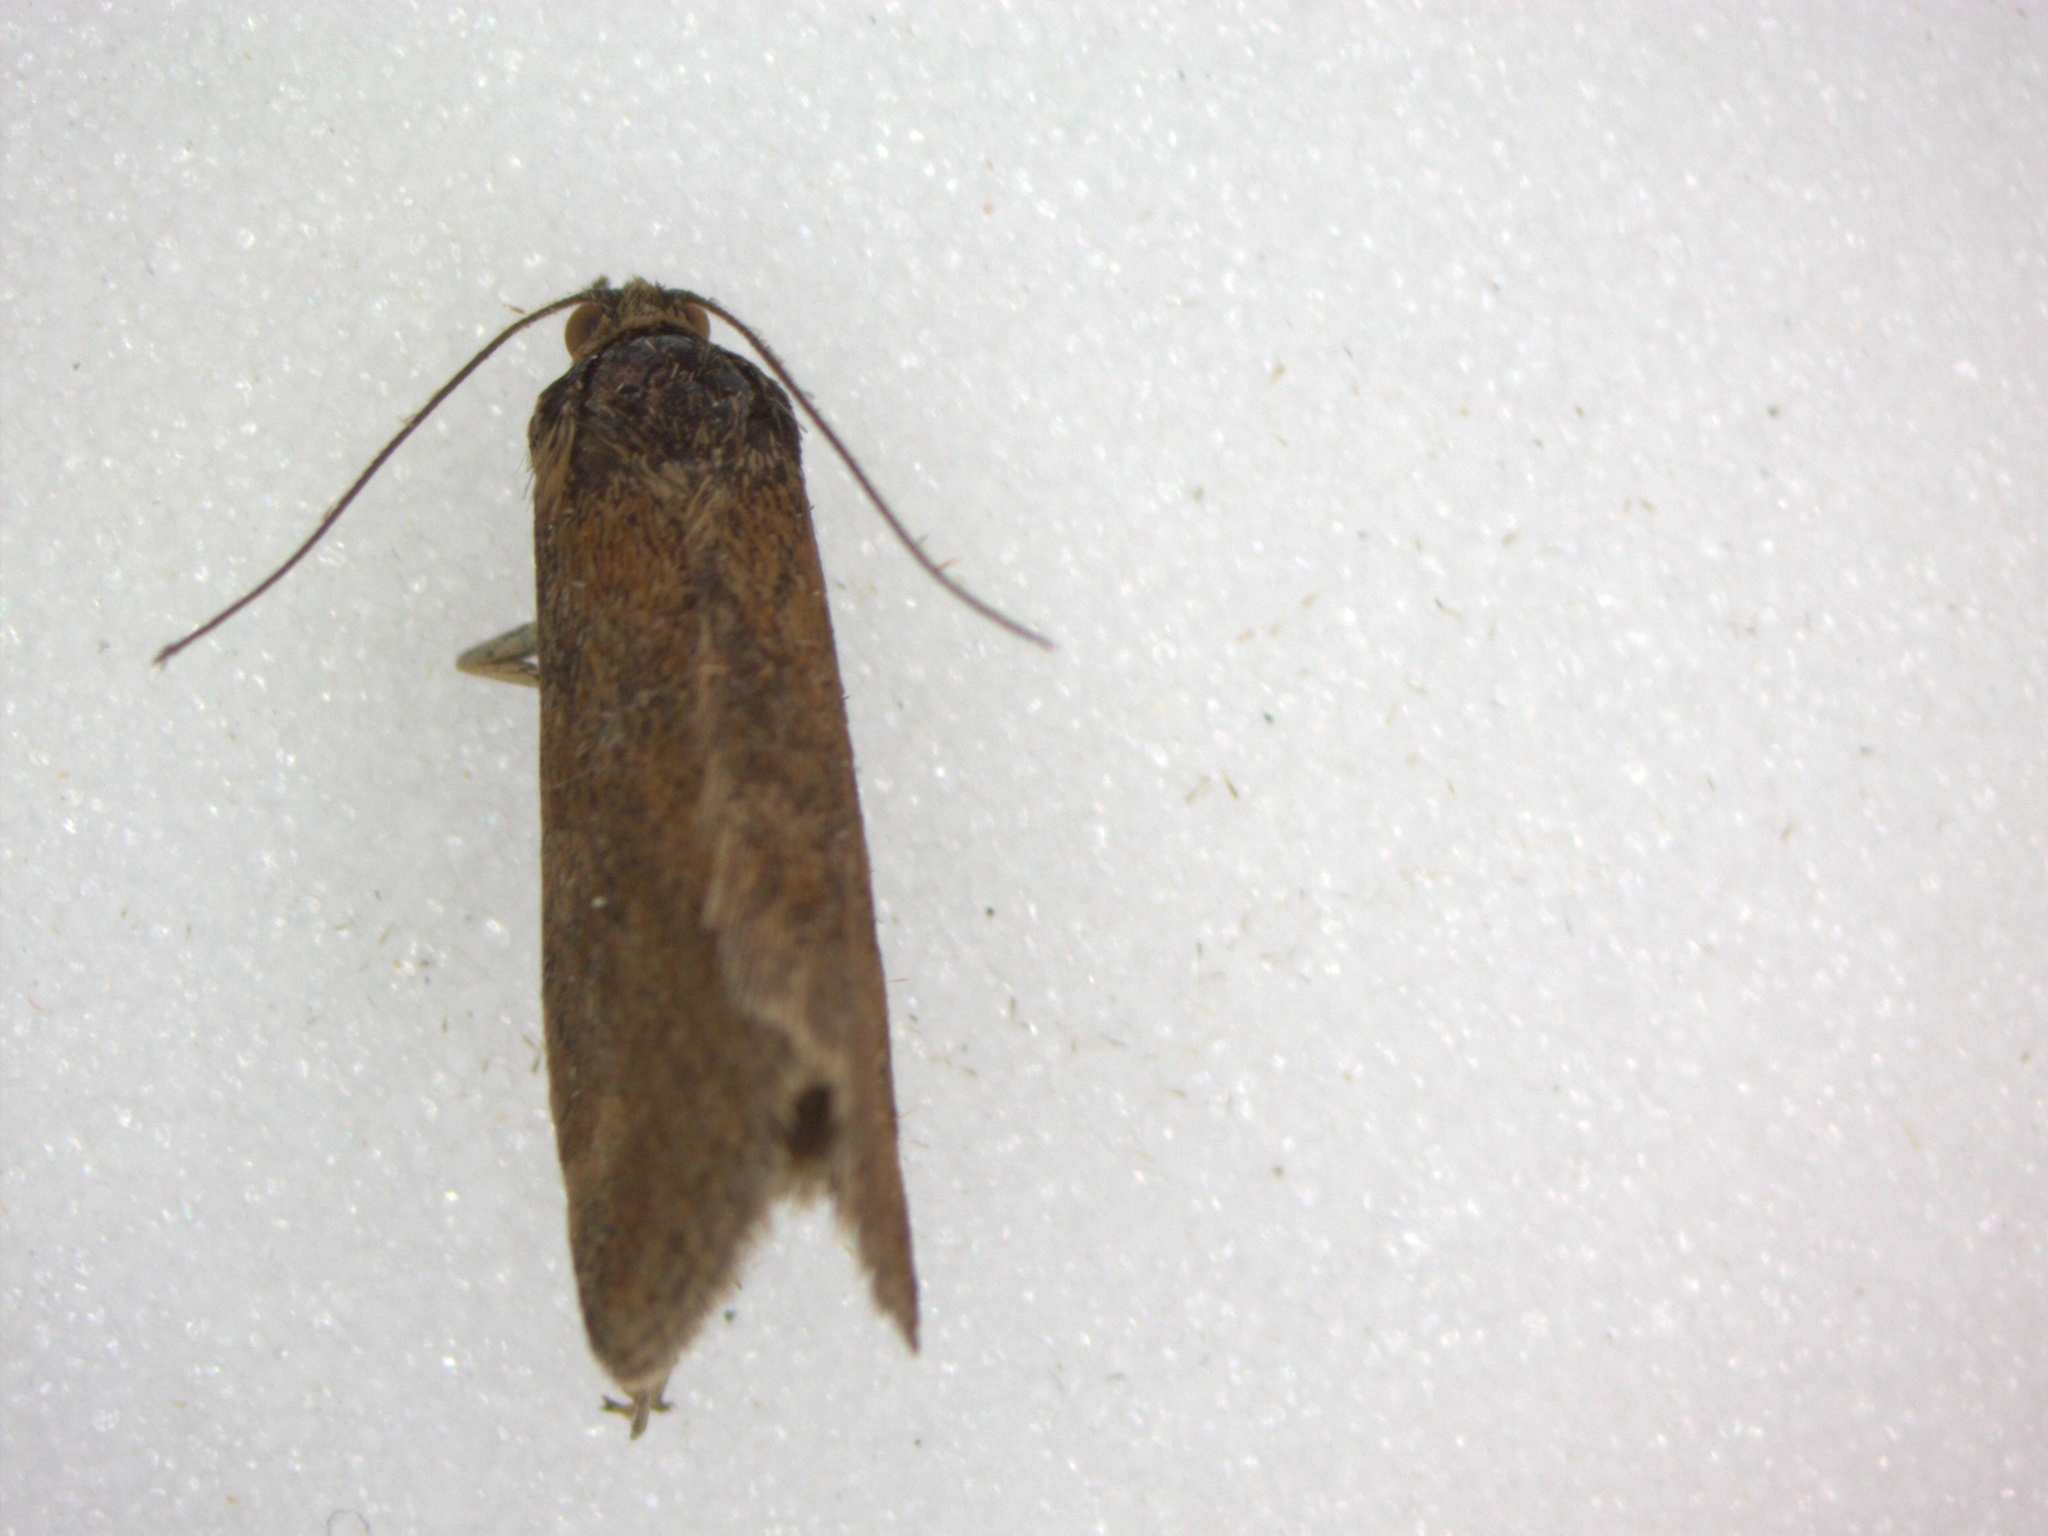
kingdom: Animalia
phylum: Arthropoda
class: Insecta
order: Lepidoptera
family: Crambidae
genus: Pyrausta
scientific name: Pyrausta despicata
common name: Straw-barred pearl
